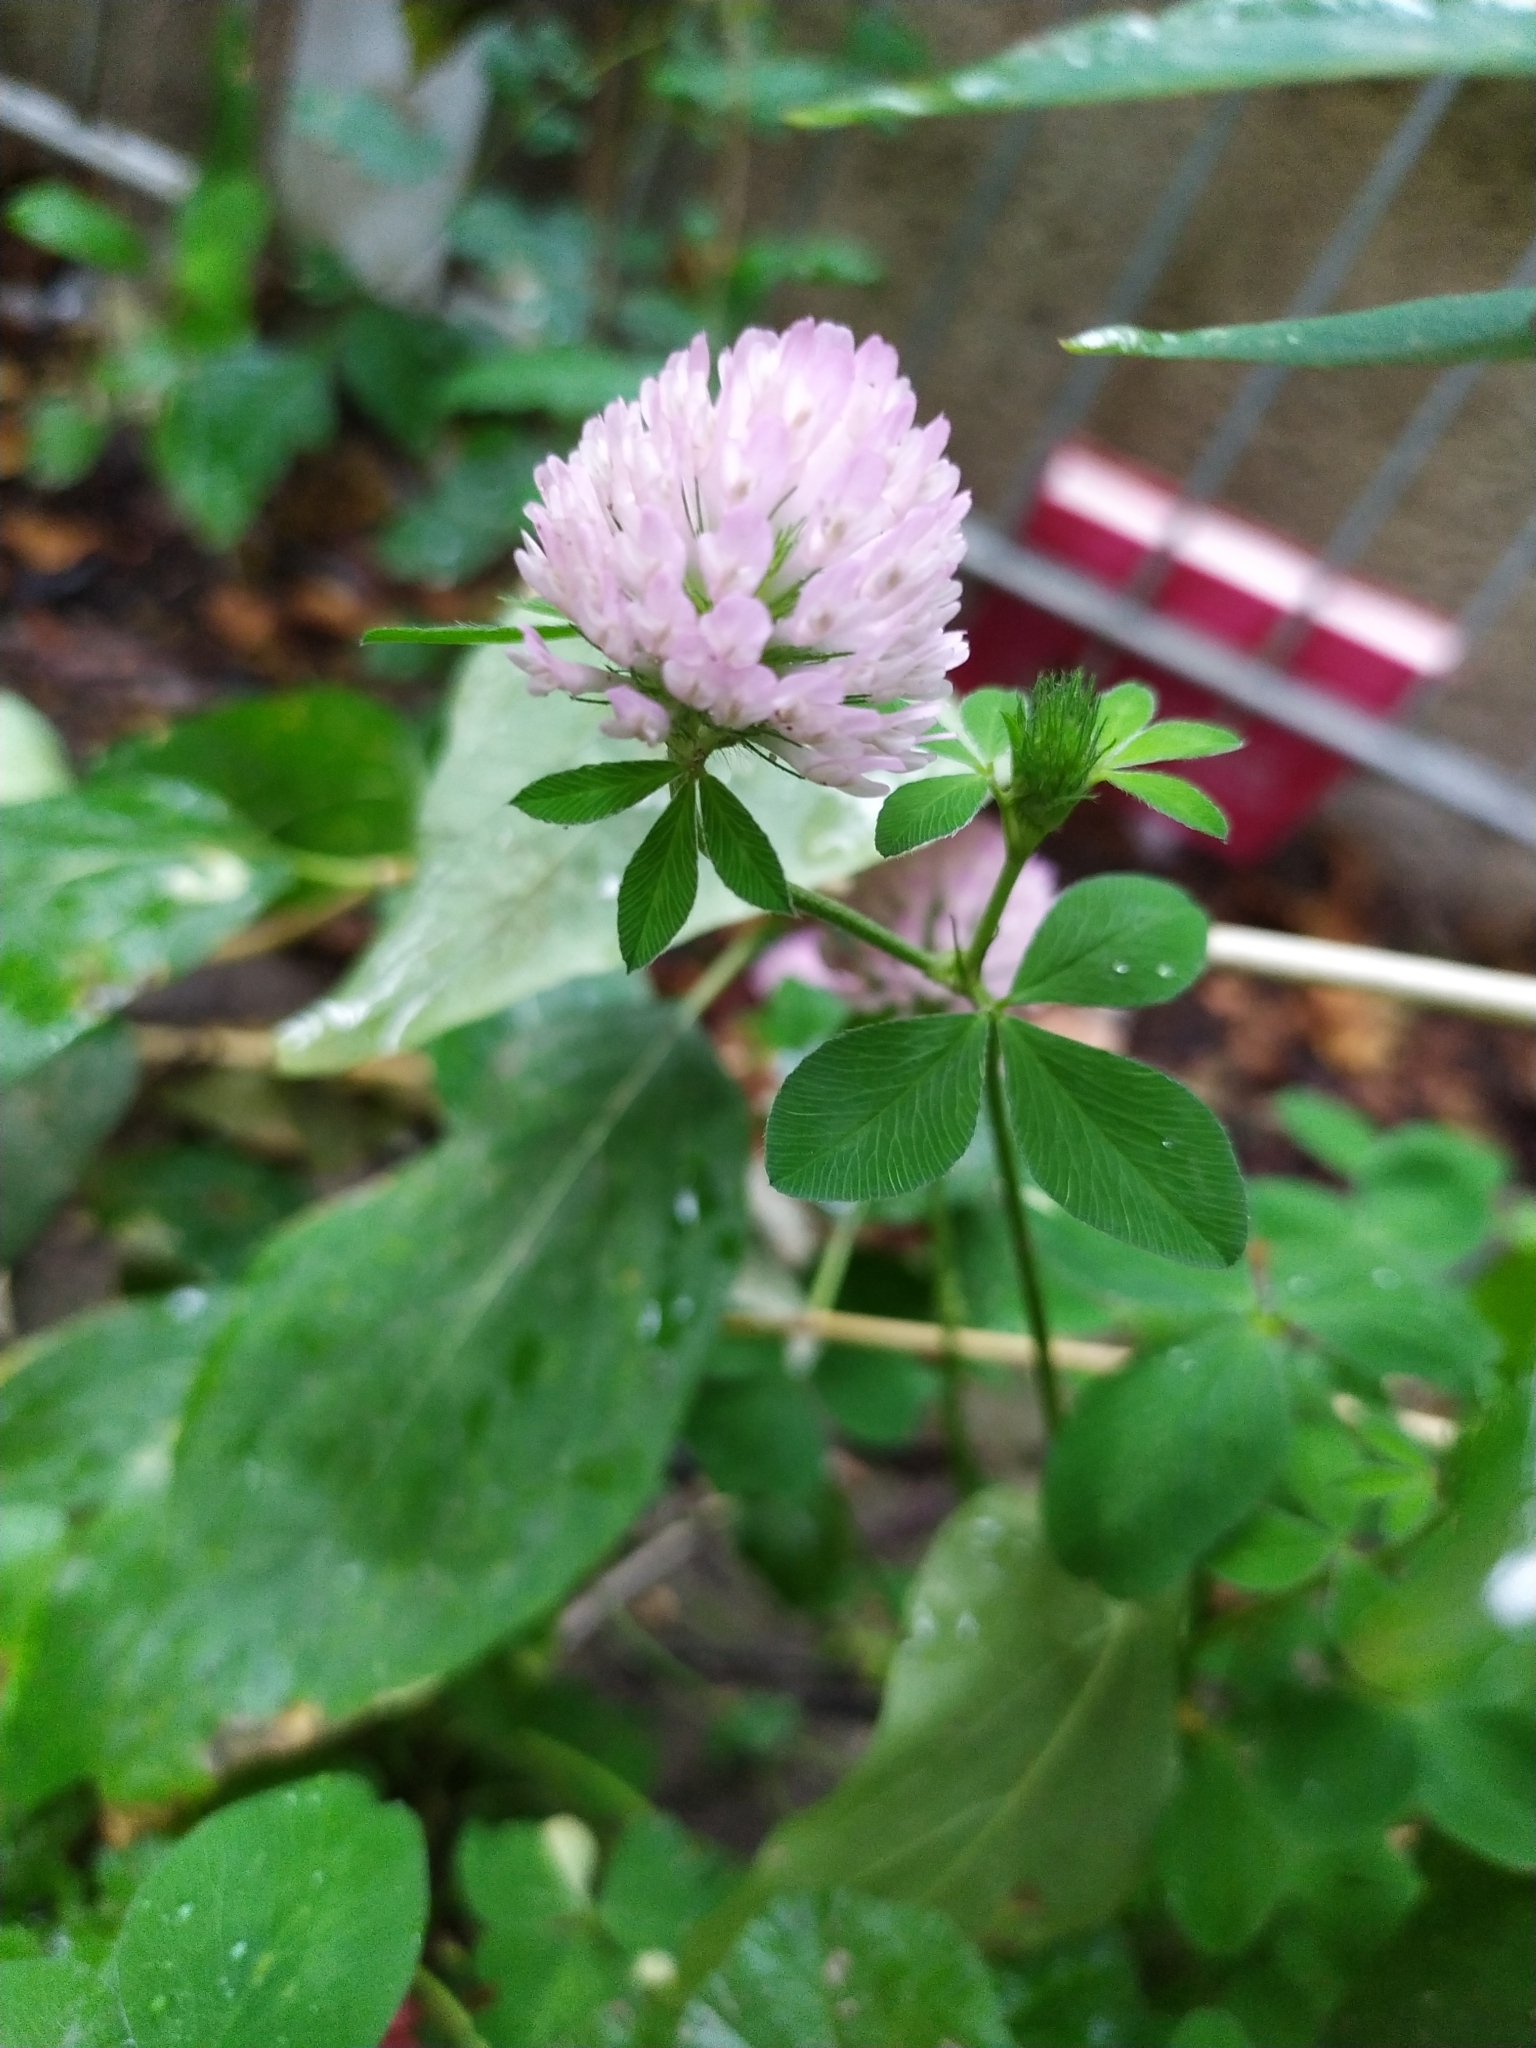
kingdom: Plantae
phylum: Tracheophyta
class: Magnoliopsida
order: Fabales
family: Fabaceae
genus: Trifolium
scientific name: Trifolium pratense
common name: Red clover
